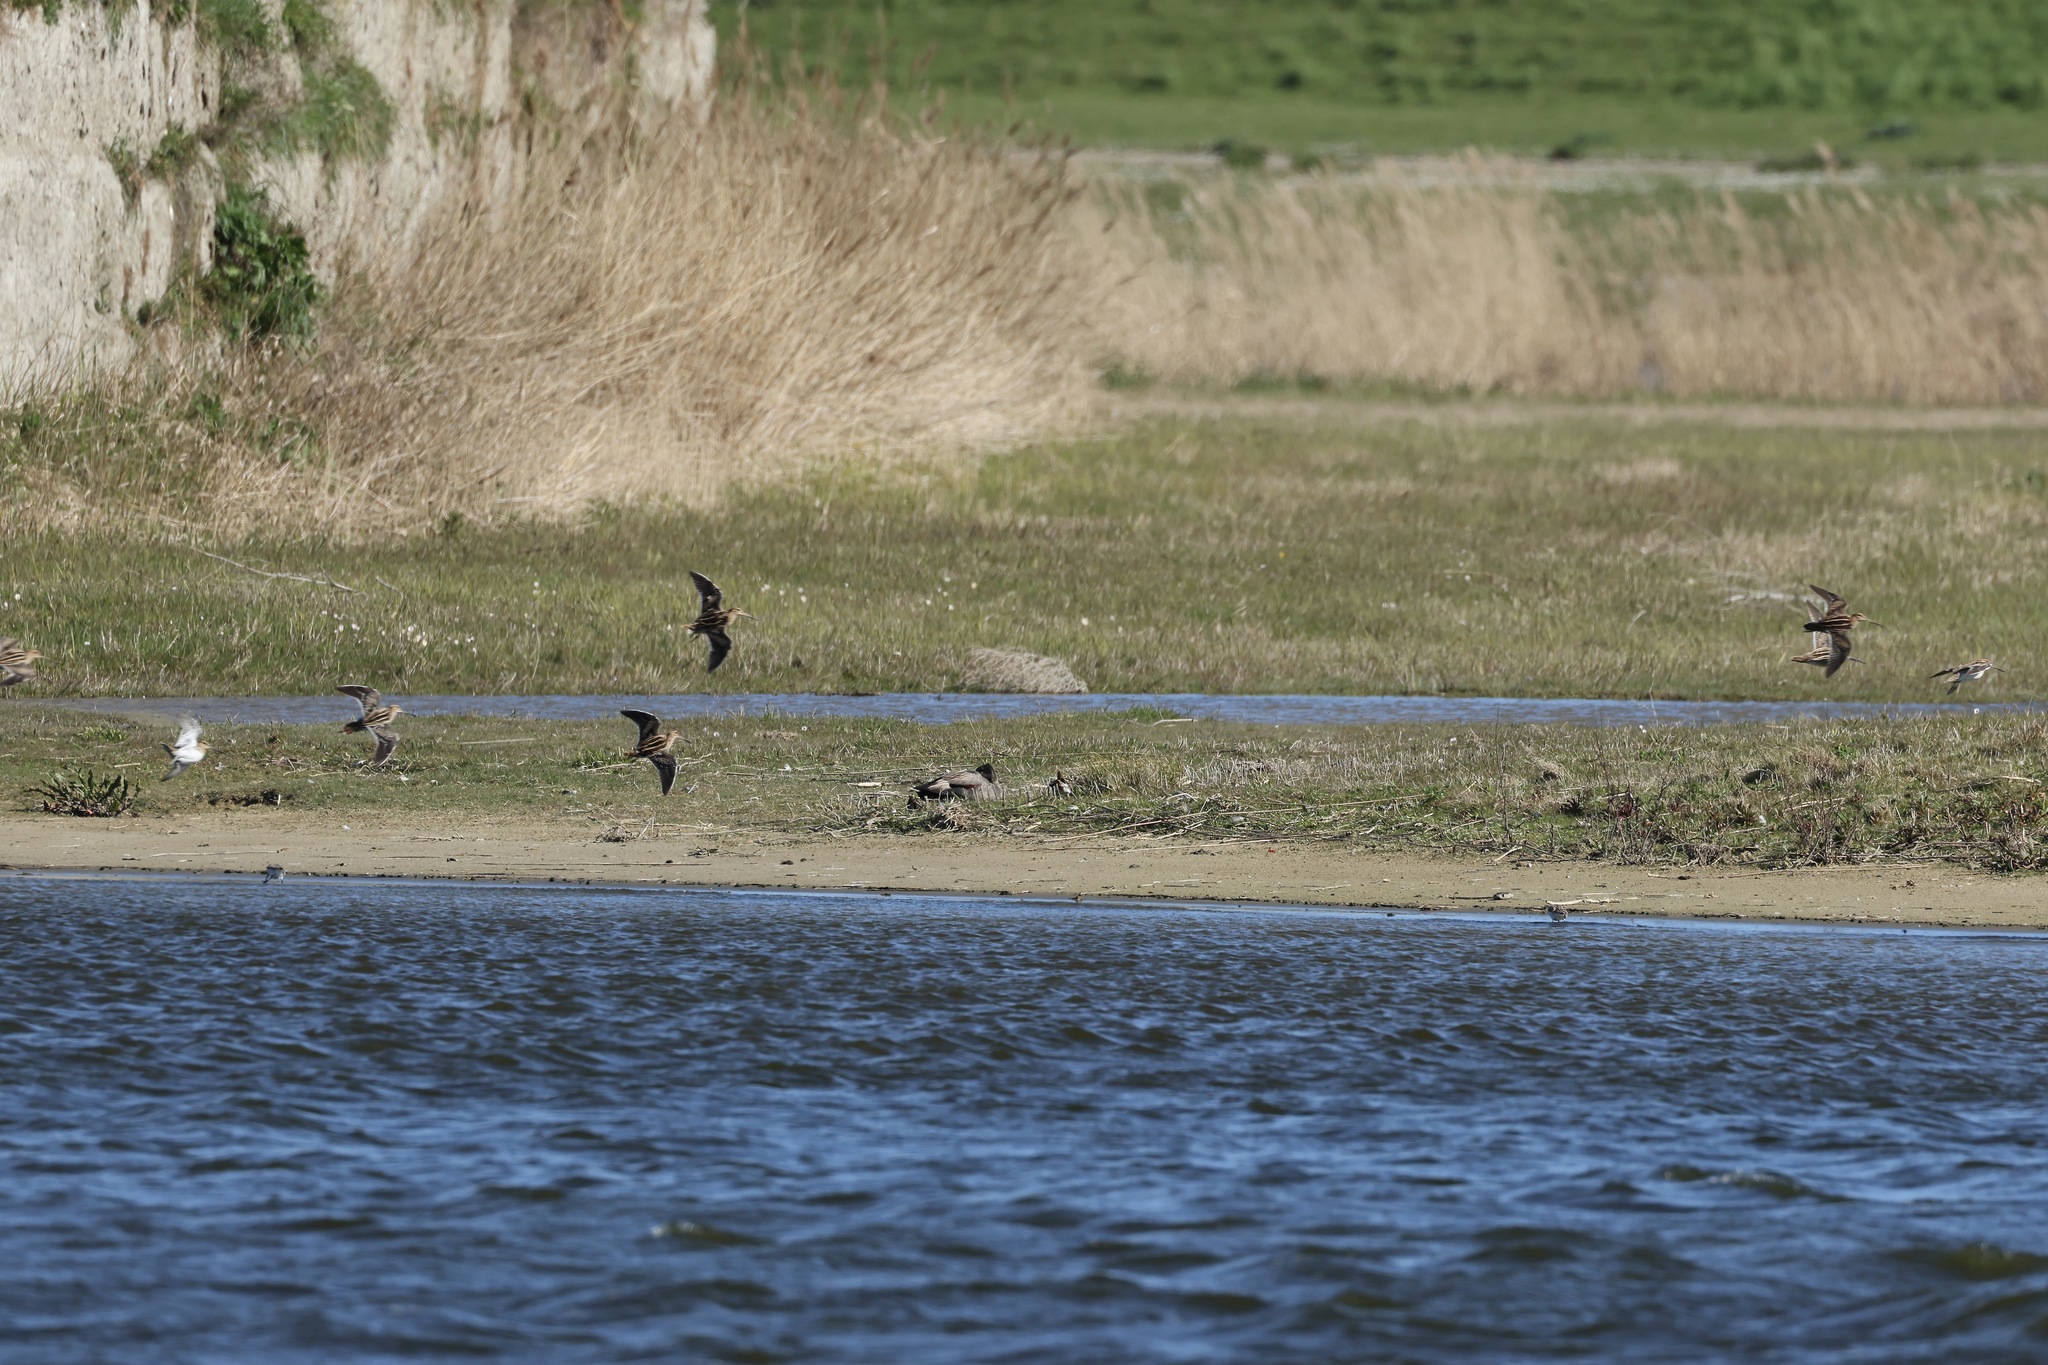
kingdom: Animalia
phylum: Chordata
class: Aves
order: Charadriiformes
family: Scolopacidae
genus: Gallinago
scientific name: Gallinago gallinago
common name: Common snipe
